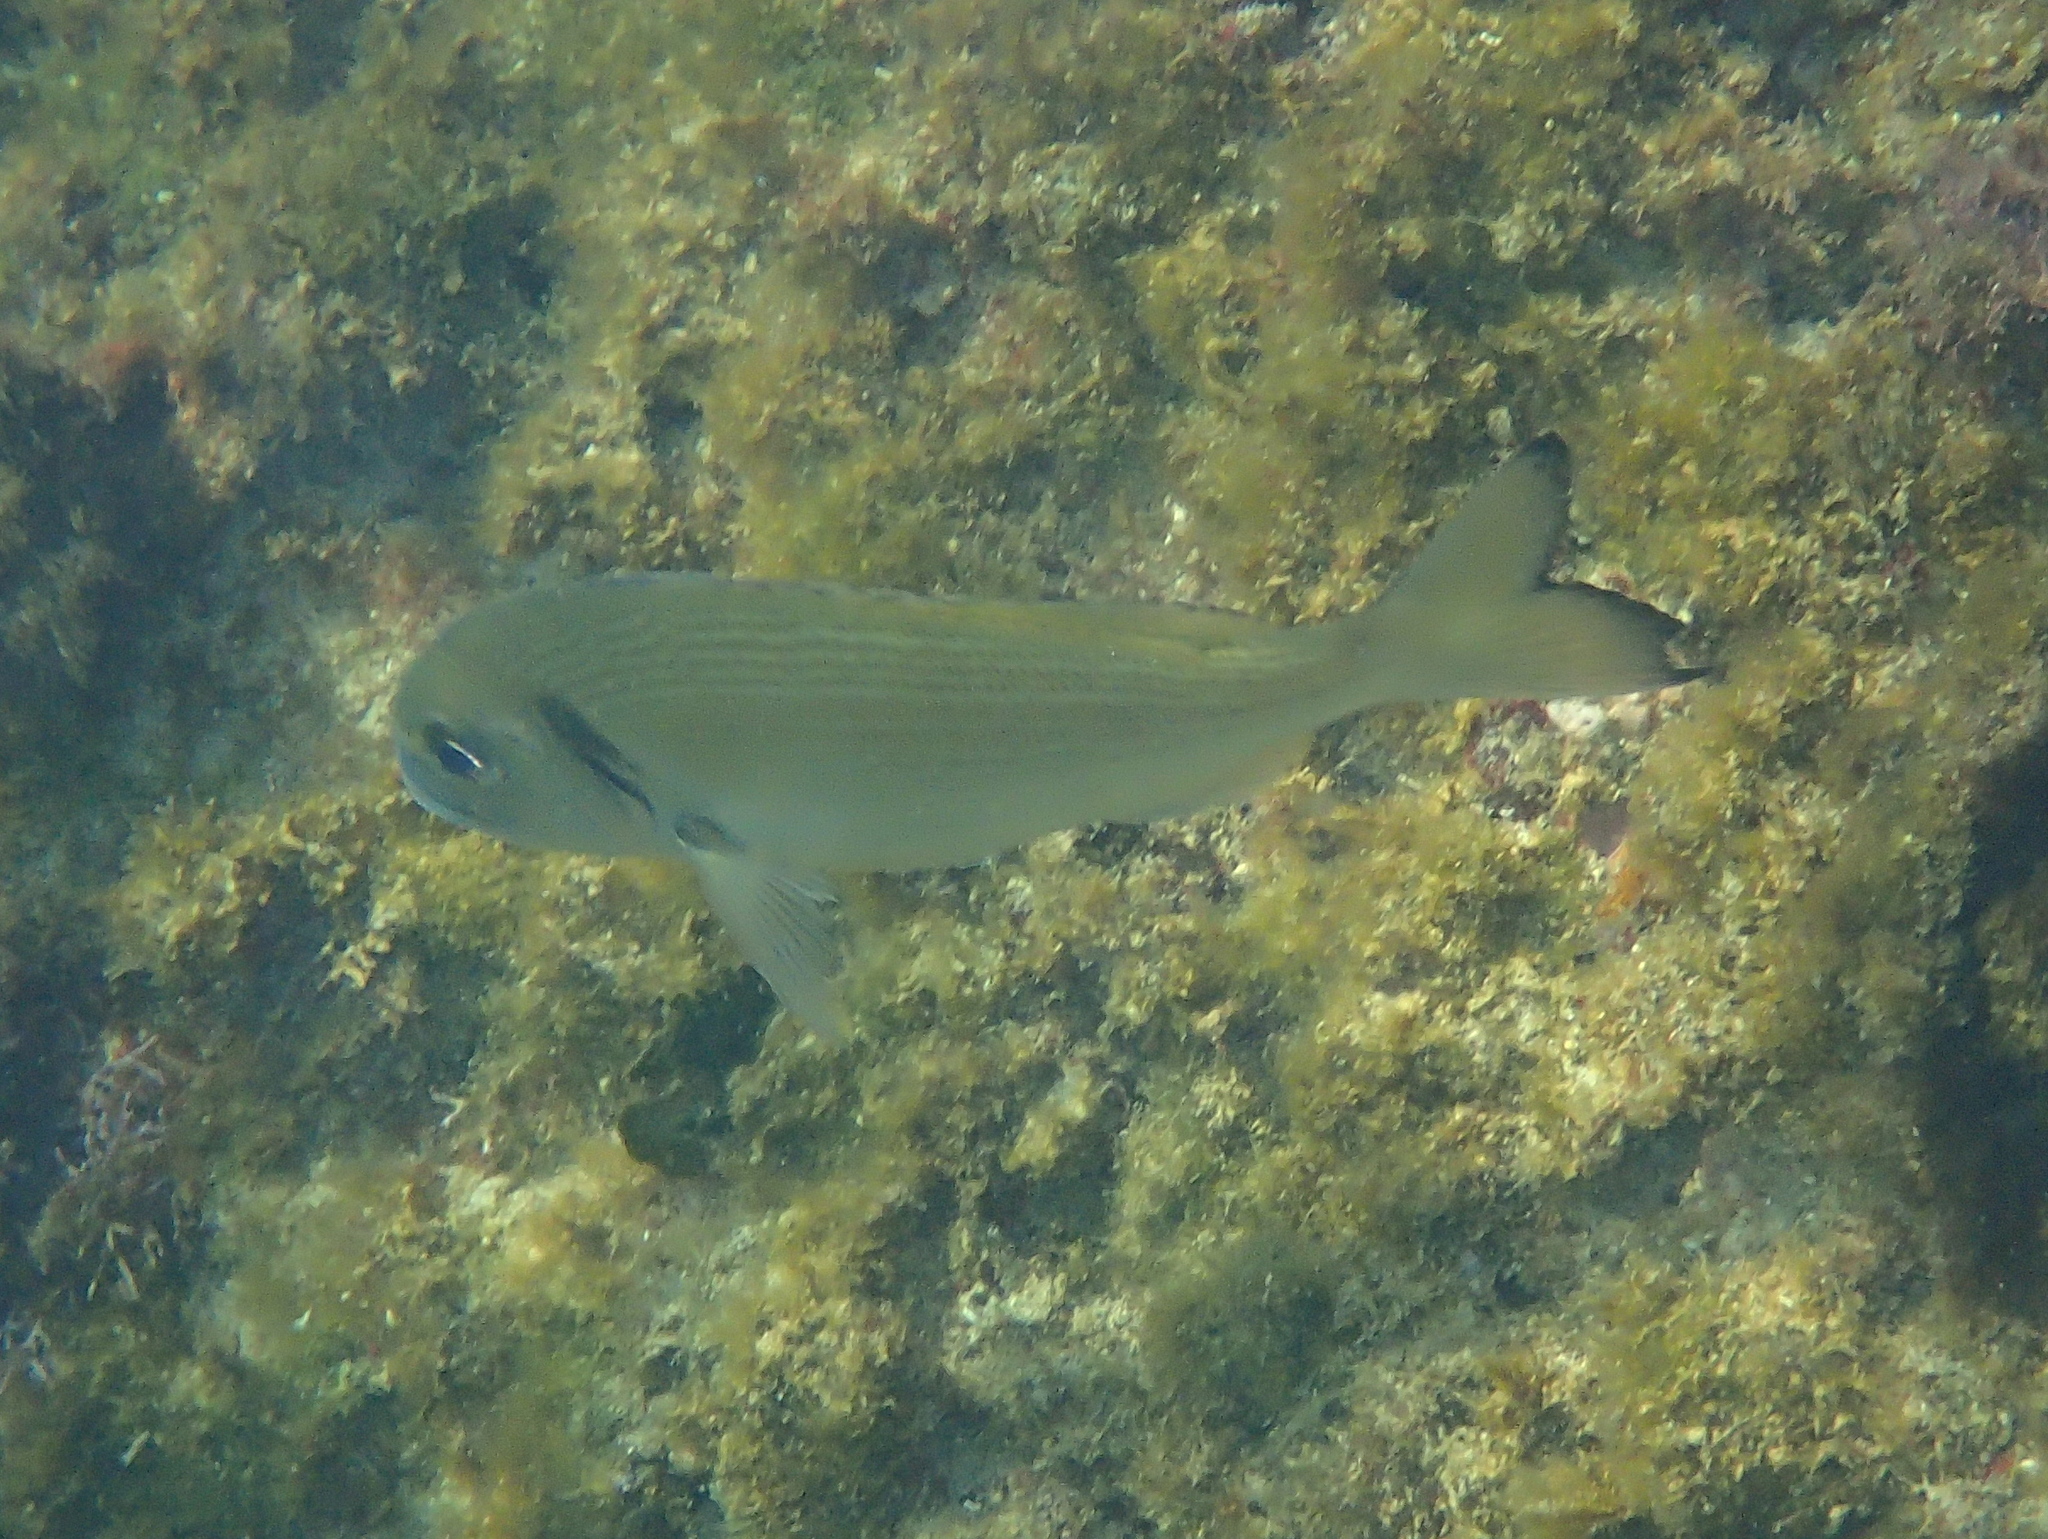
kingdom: Animalia
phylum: Chordata
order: Perciformes
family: Sparidae
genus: Sparus
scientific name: Sparus aurata
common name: Gilthead
